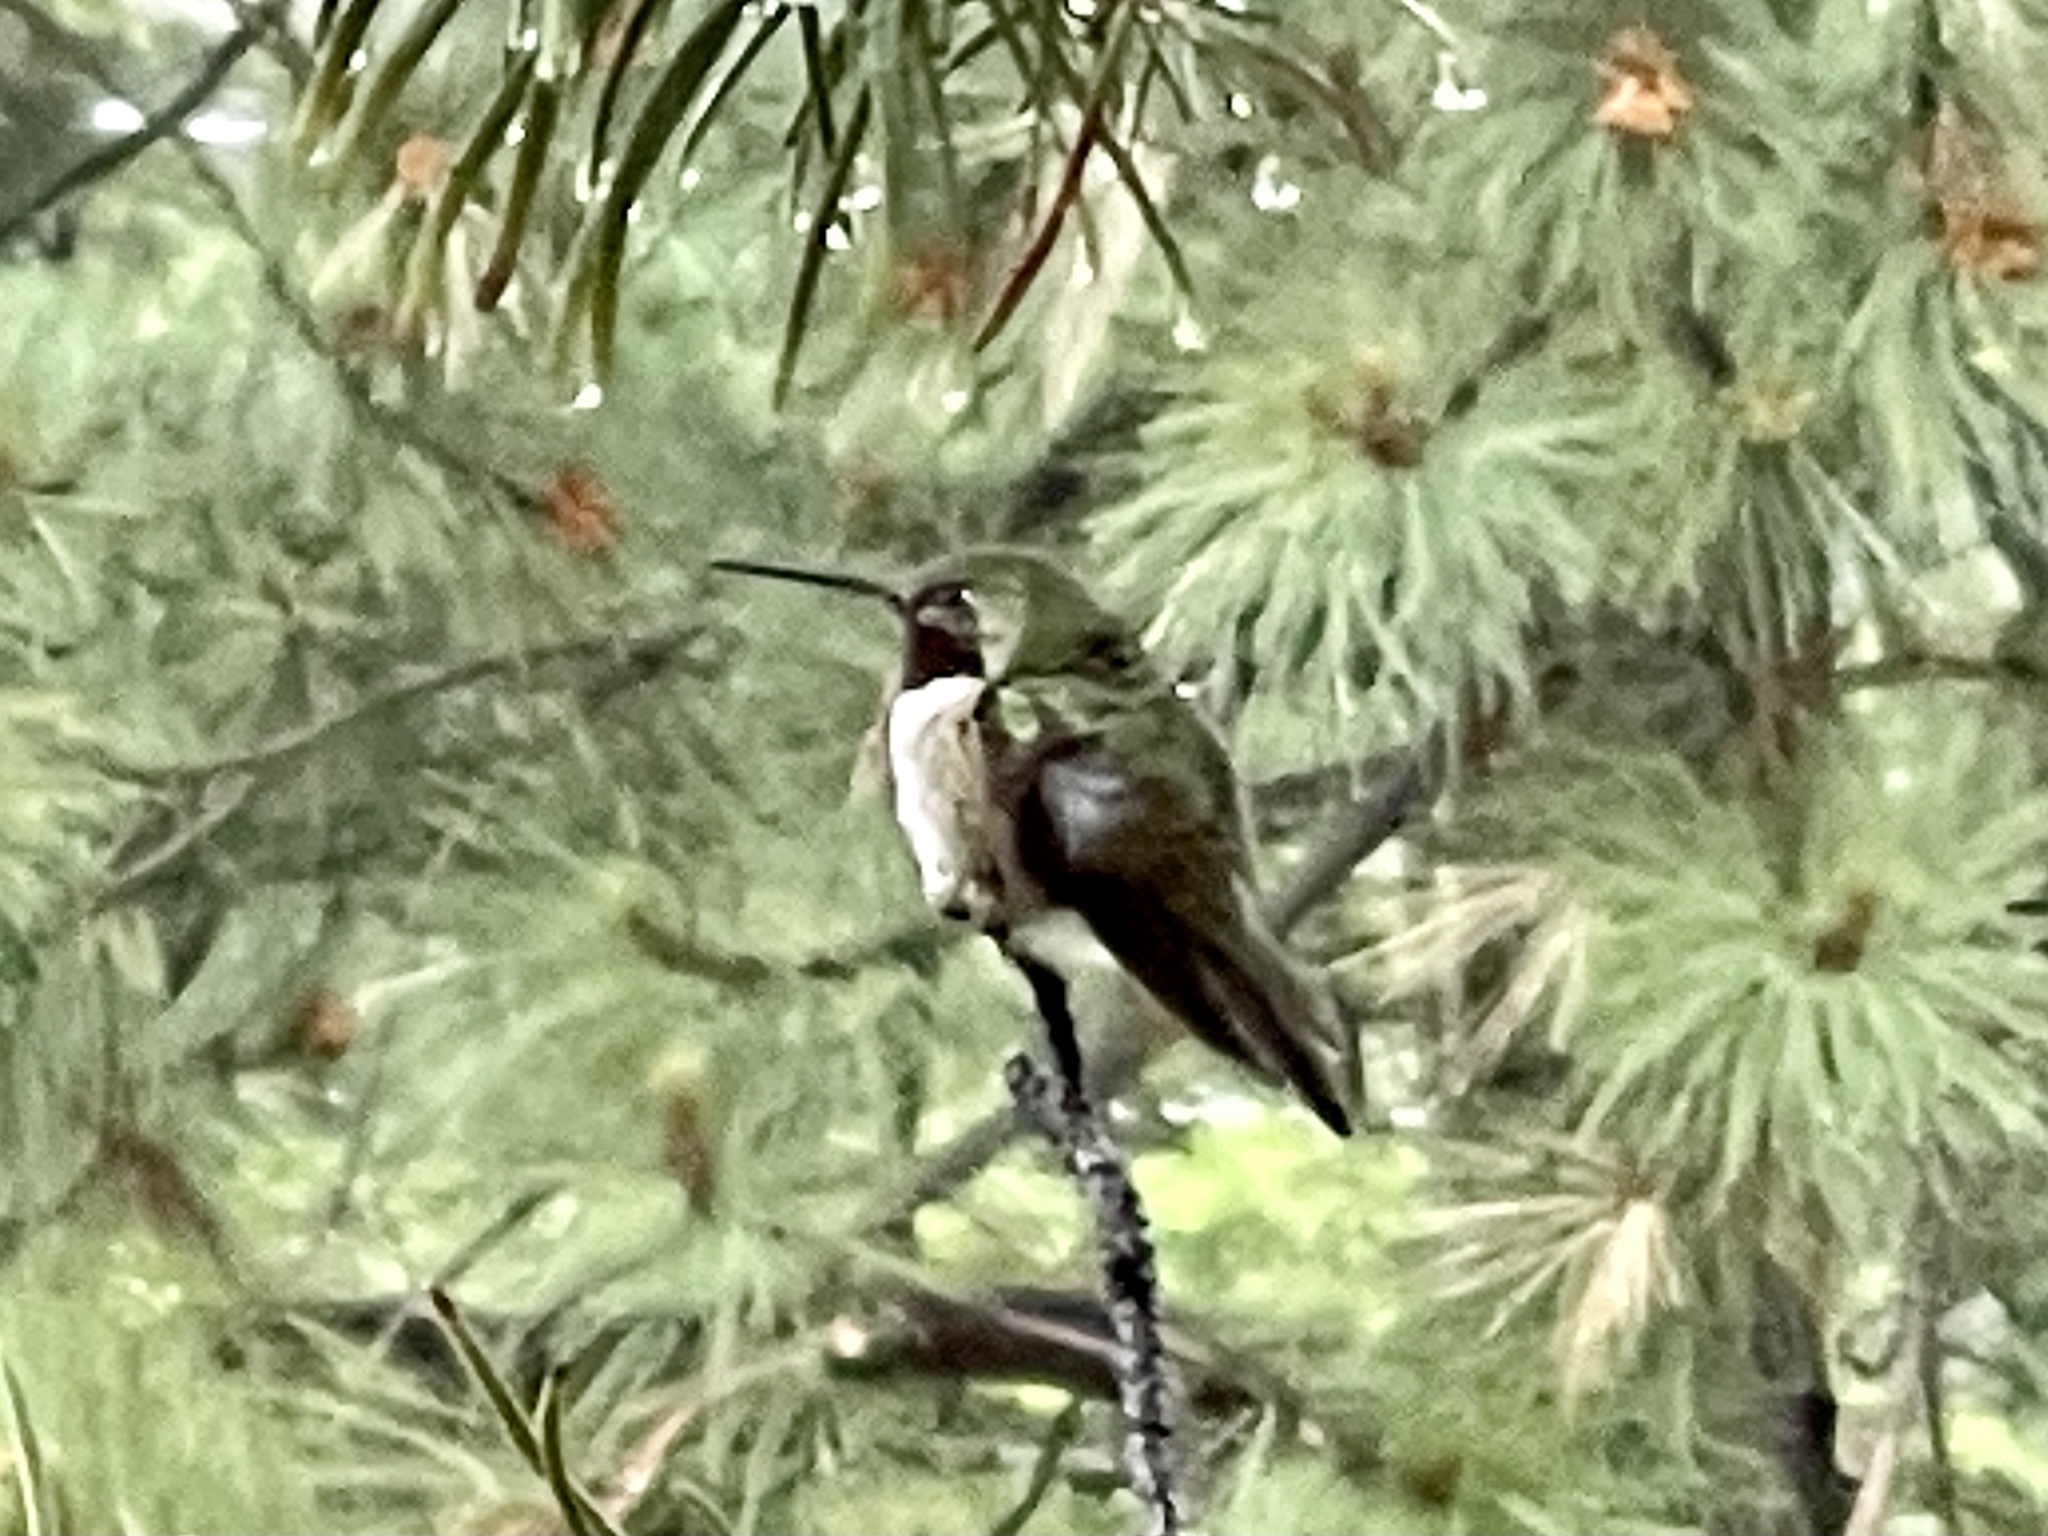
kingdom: Animalia
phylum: Chordata
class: Aves
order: Apodiformes
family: Trochilidae
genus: Selasphorus
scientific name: Selasphorus platycercus
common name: Broad-tailed hummingbird
